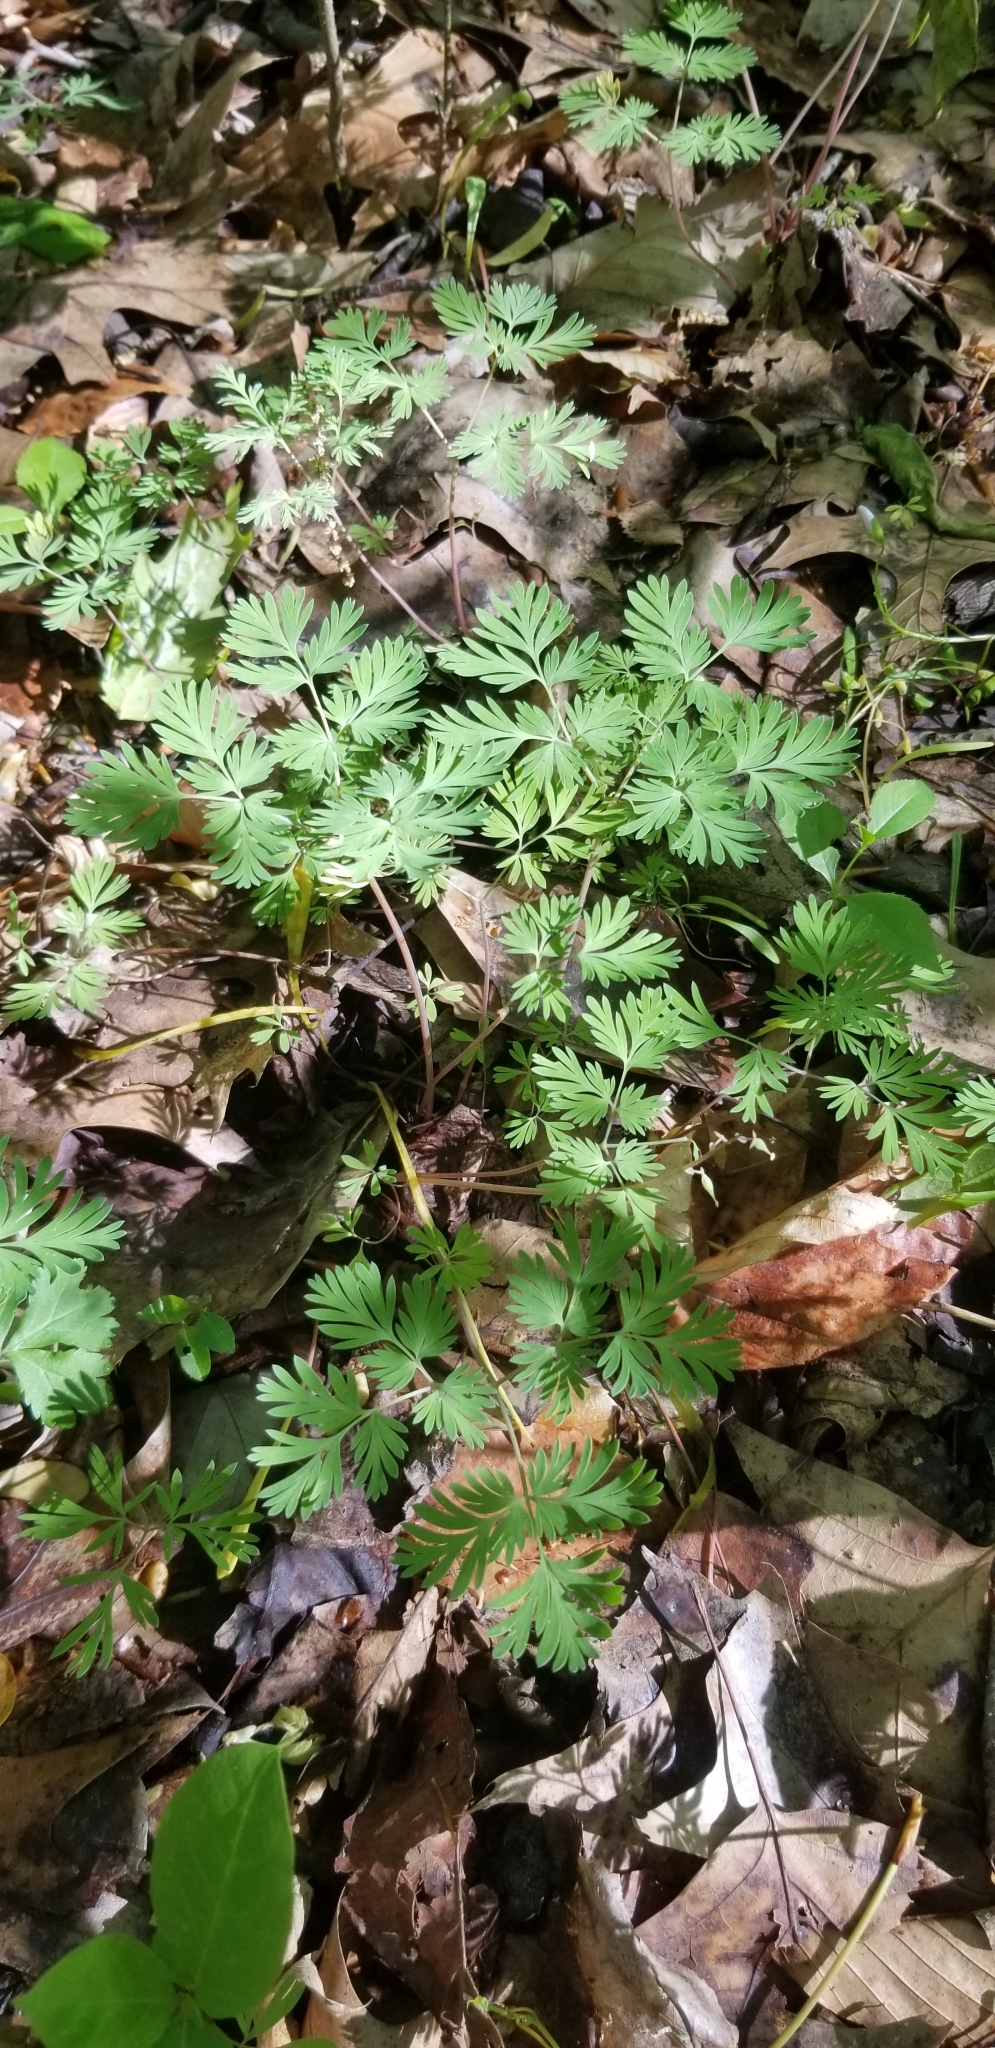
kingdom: Plantae
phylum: Tracheophyta
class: Magnoliopsida
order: Ranunculales
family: Papaveraceae
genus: Dicentra
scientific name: Dicentra canadensis
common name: Squirrel-corn
